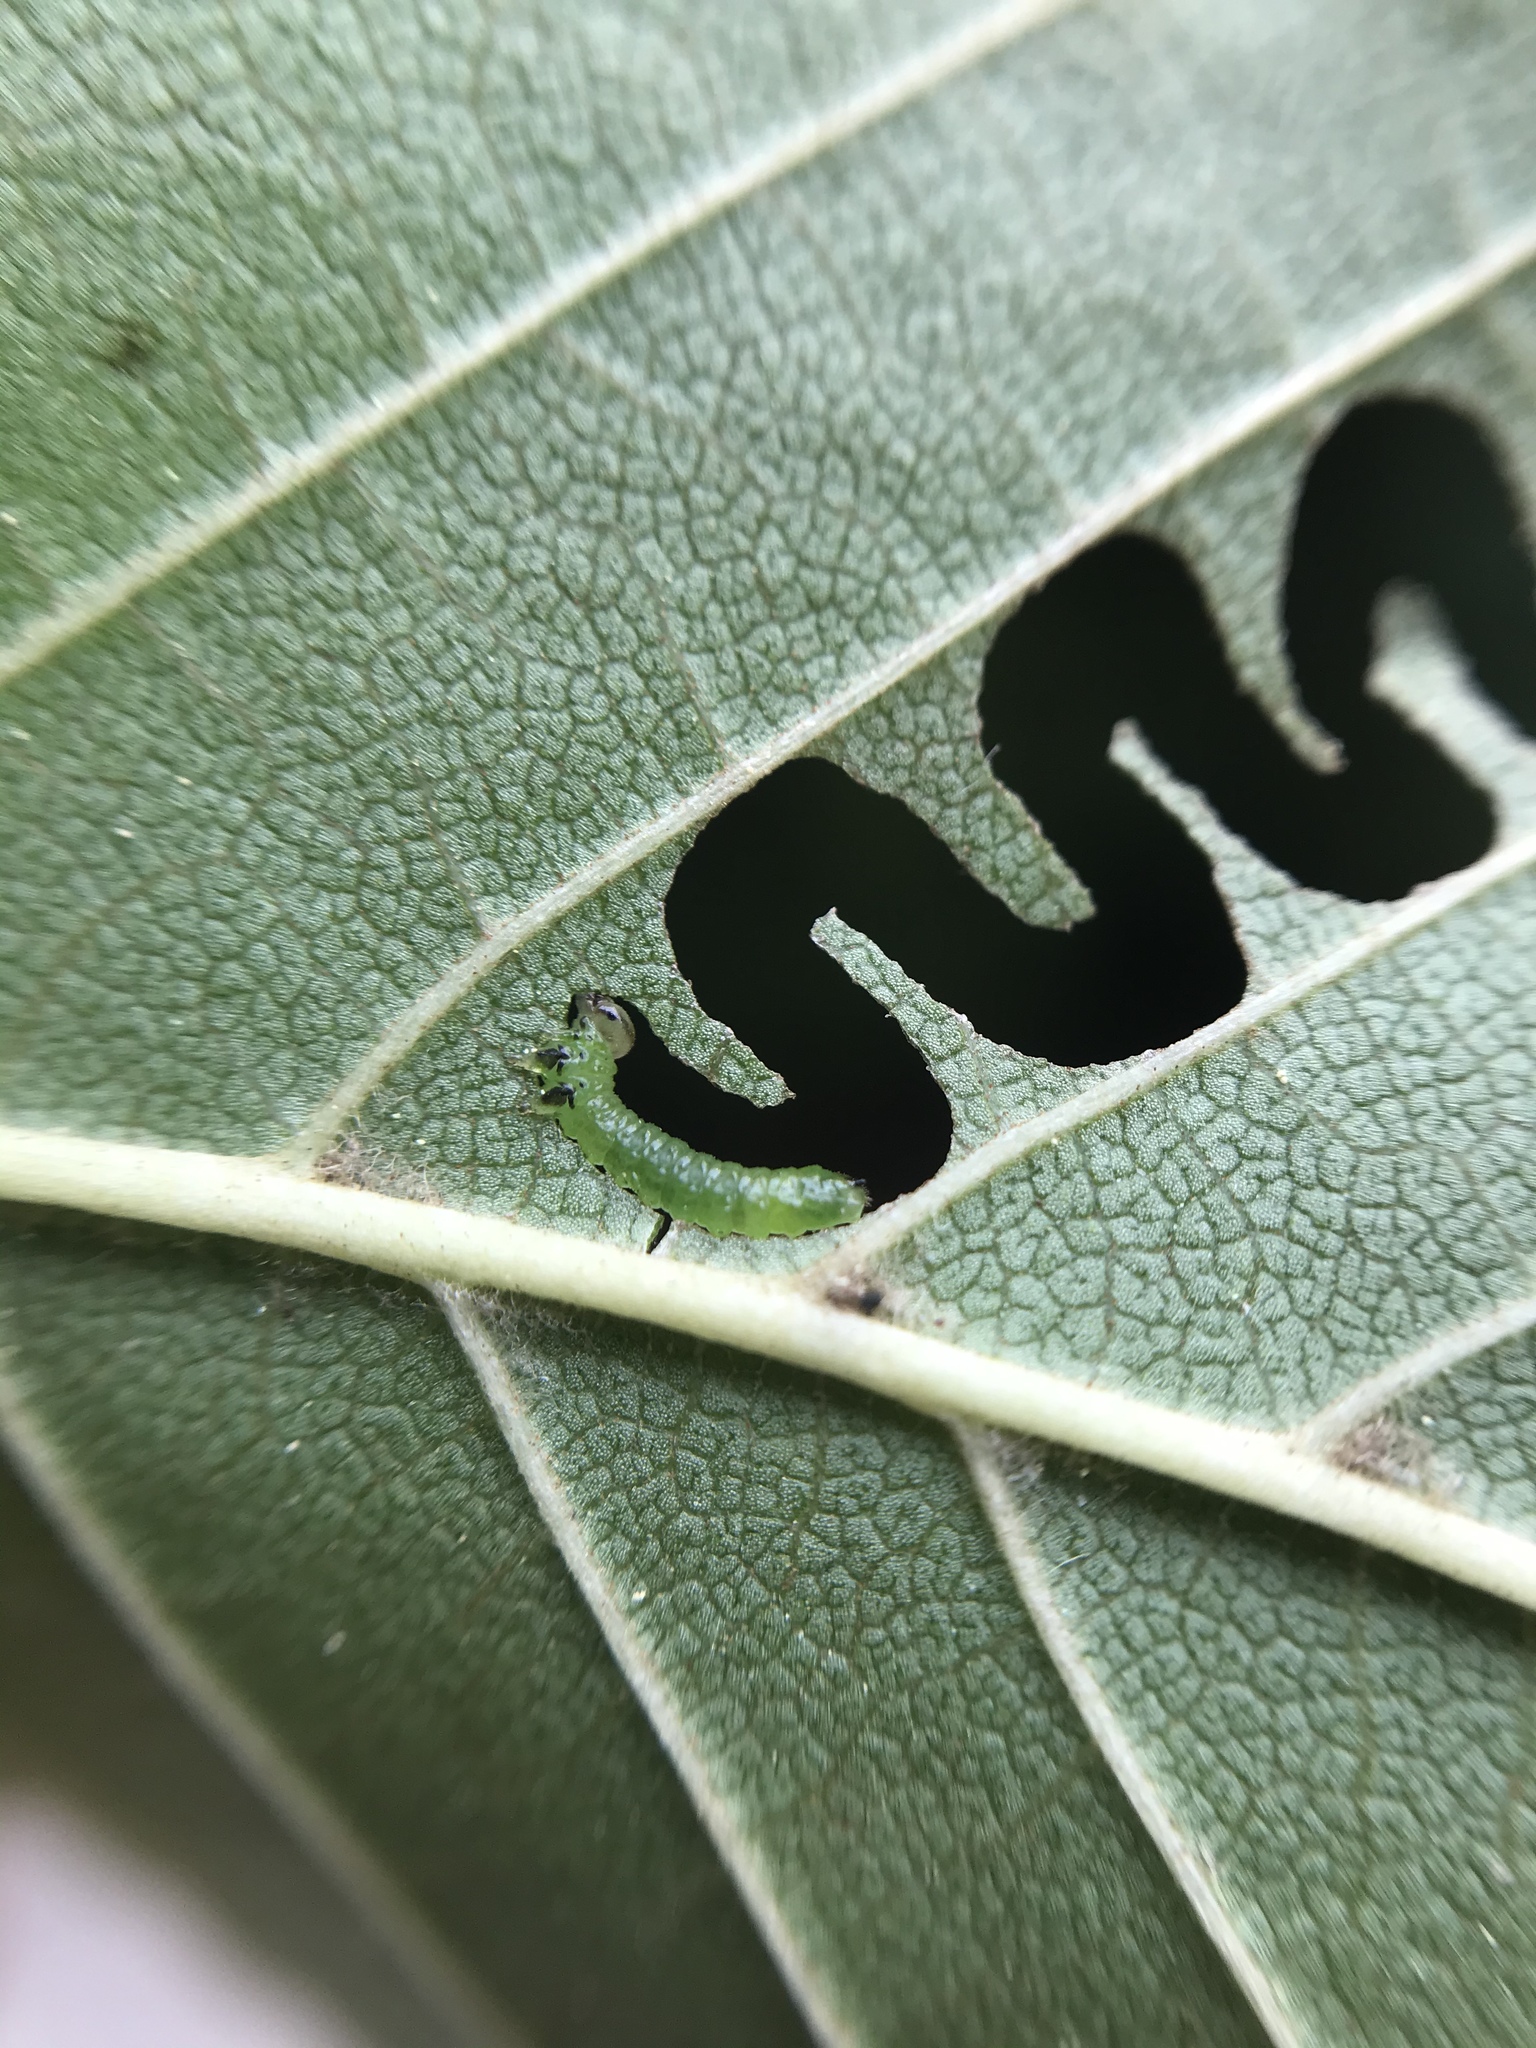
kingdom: Animalia
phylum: Arthropoda
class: Insecta
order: Hymenoptera
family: Argidae
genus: Aproceros
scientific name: Aproceros leucopoda
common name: Zig-zag elm sawfly
